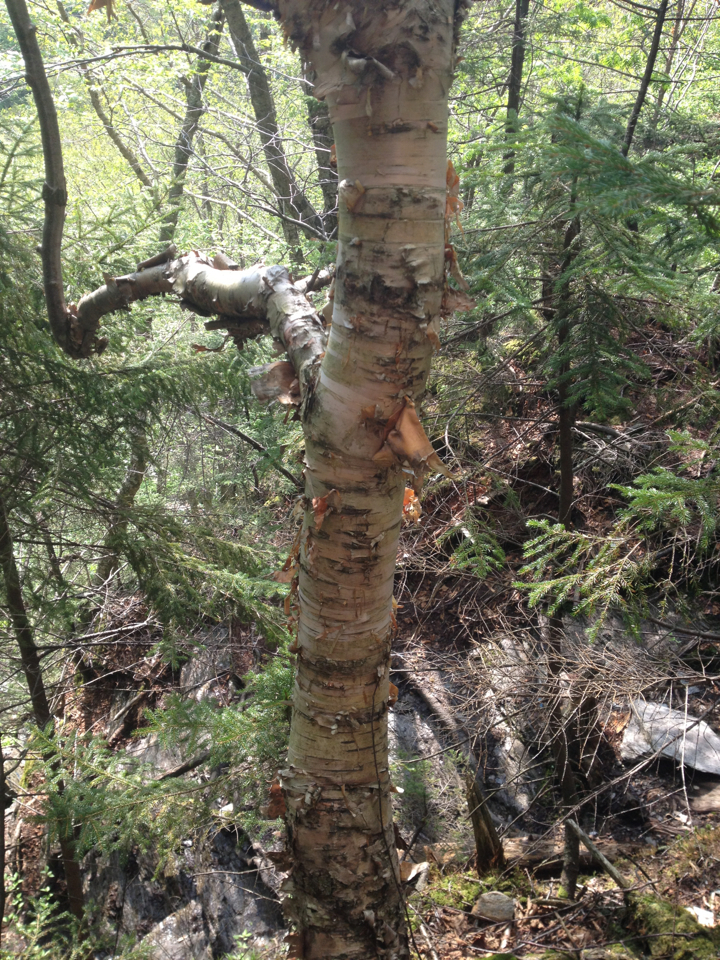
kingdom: Plantae
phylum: Tracheophyta
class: Magnoliopsida
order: Fagales
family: Betulaceae
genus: Betula
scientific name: Betula cordifolia
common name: Mountain white birch
